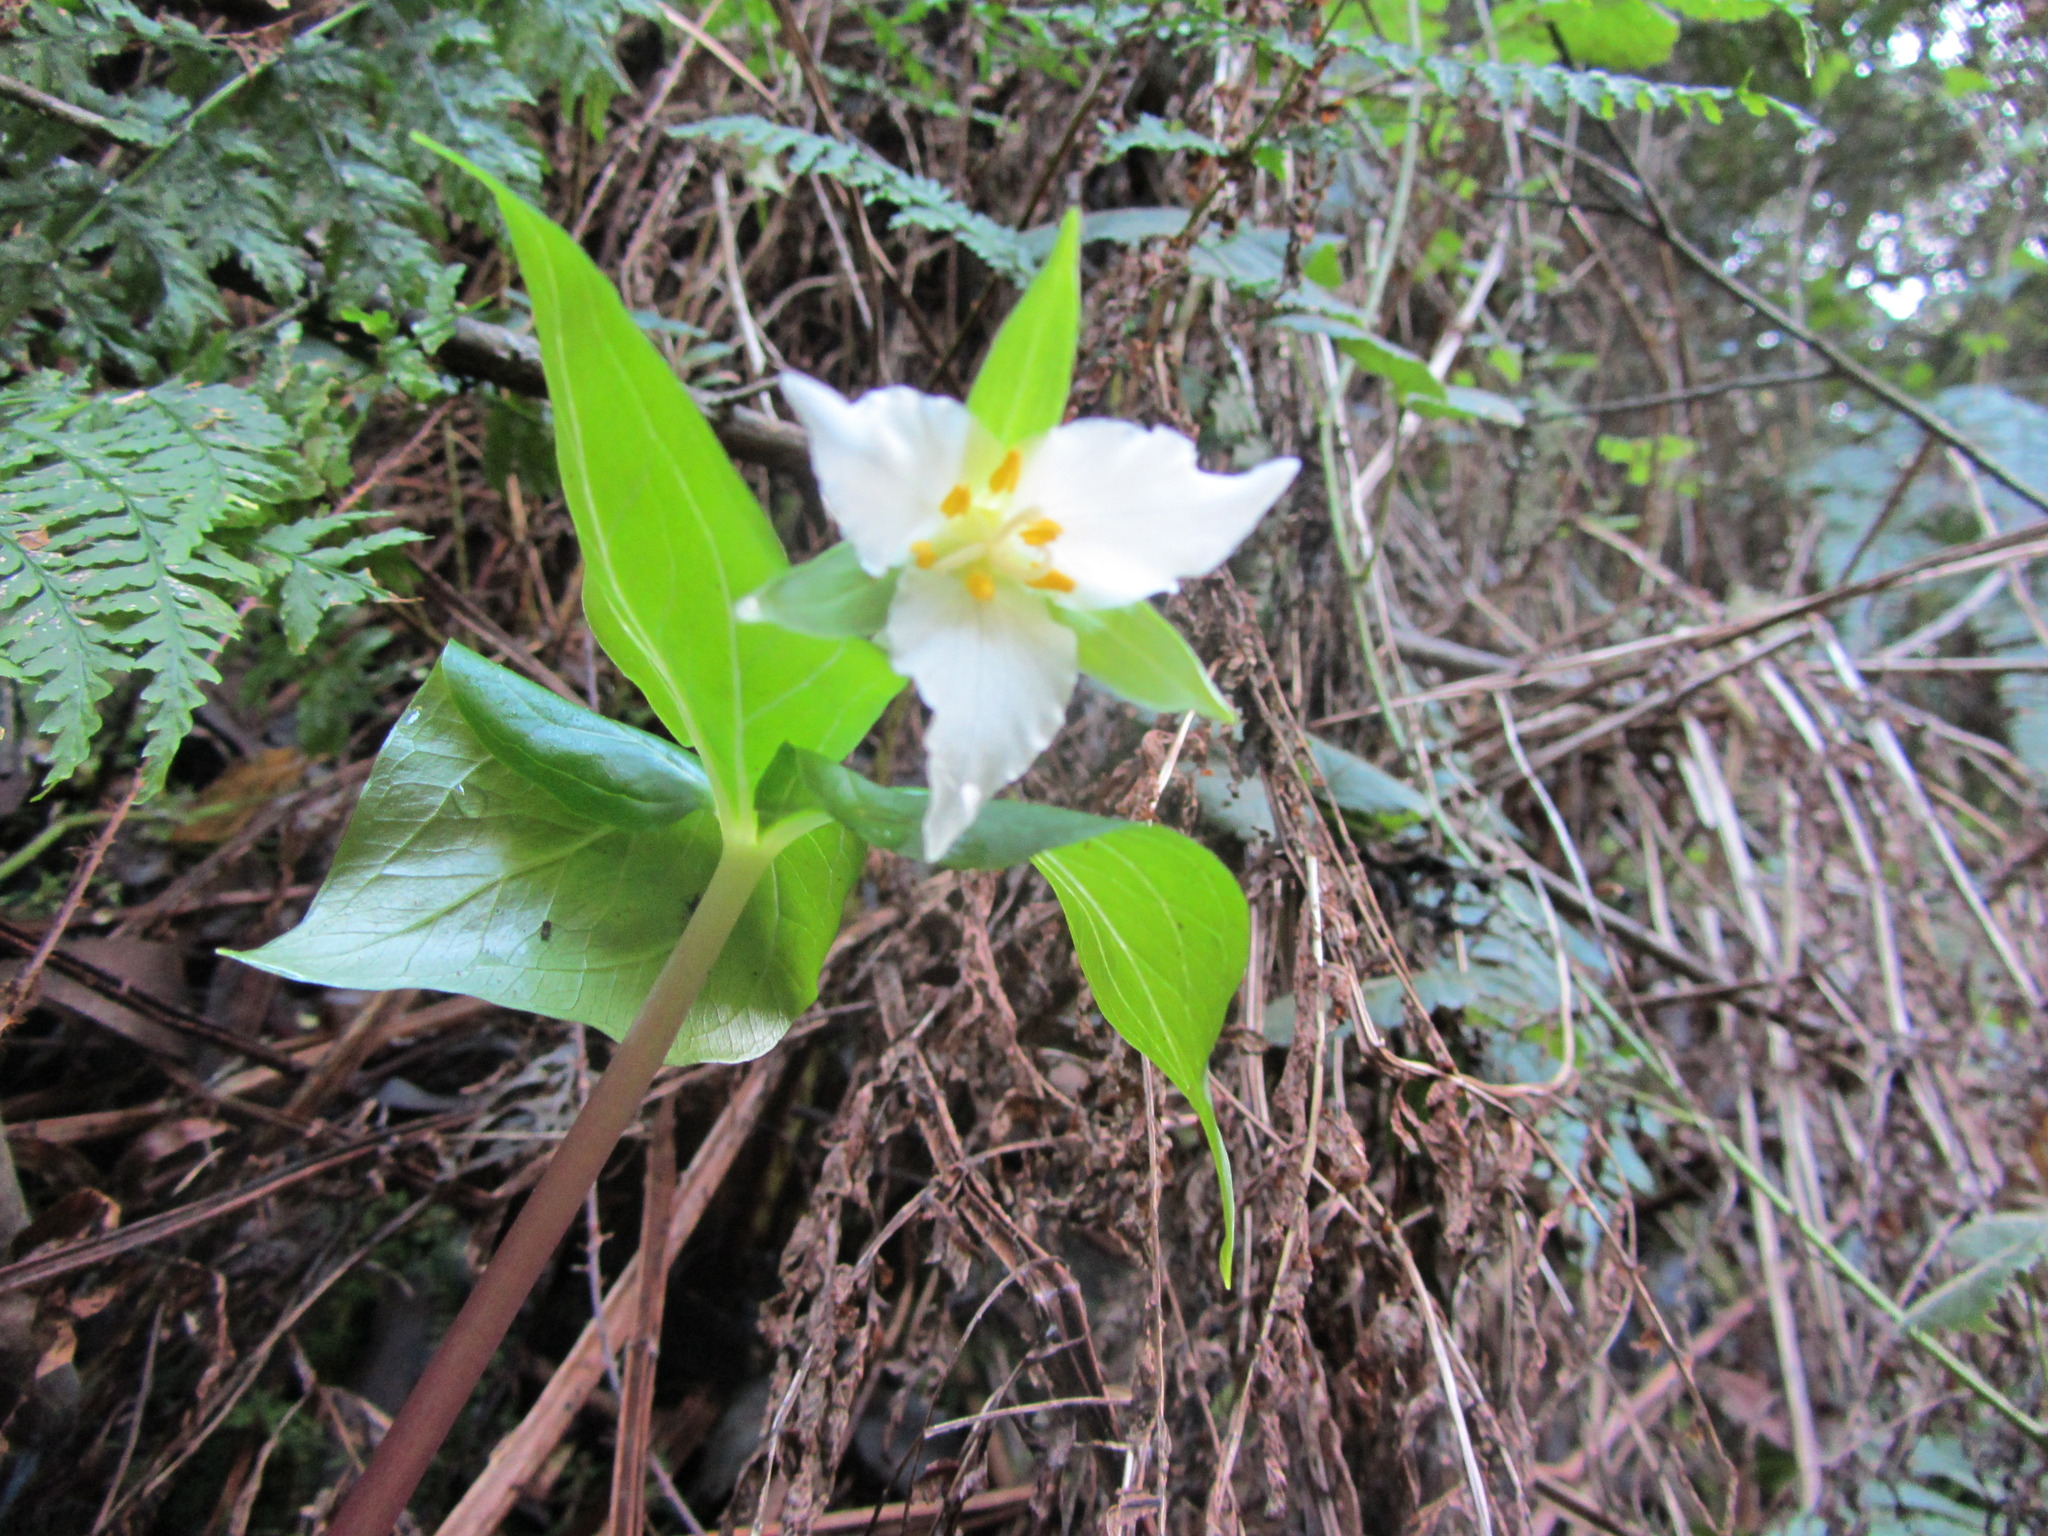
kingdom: Plantae
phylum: Tracheophyta
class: Liliopsida
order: Liliales
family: Melanthiaceae
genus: Trillium
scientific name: Trillium ovatum
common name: Pacific trillium
